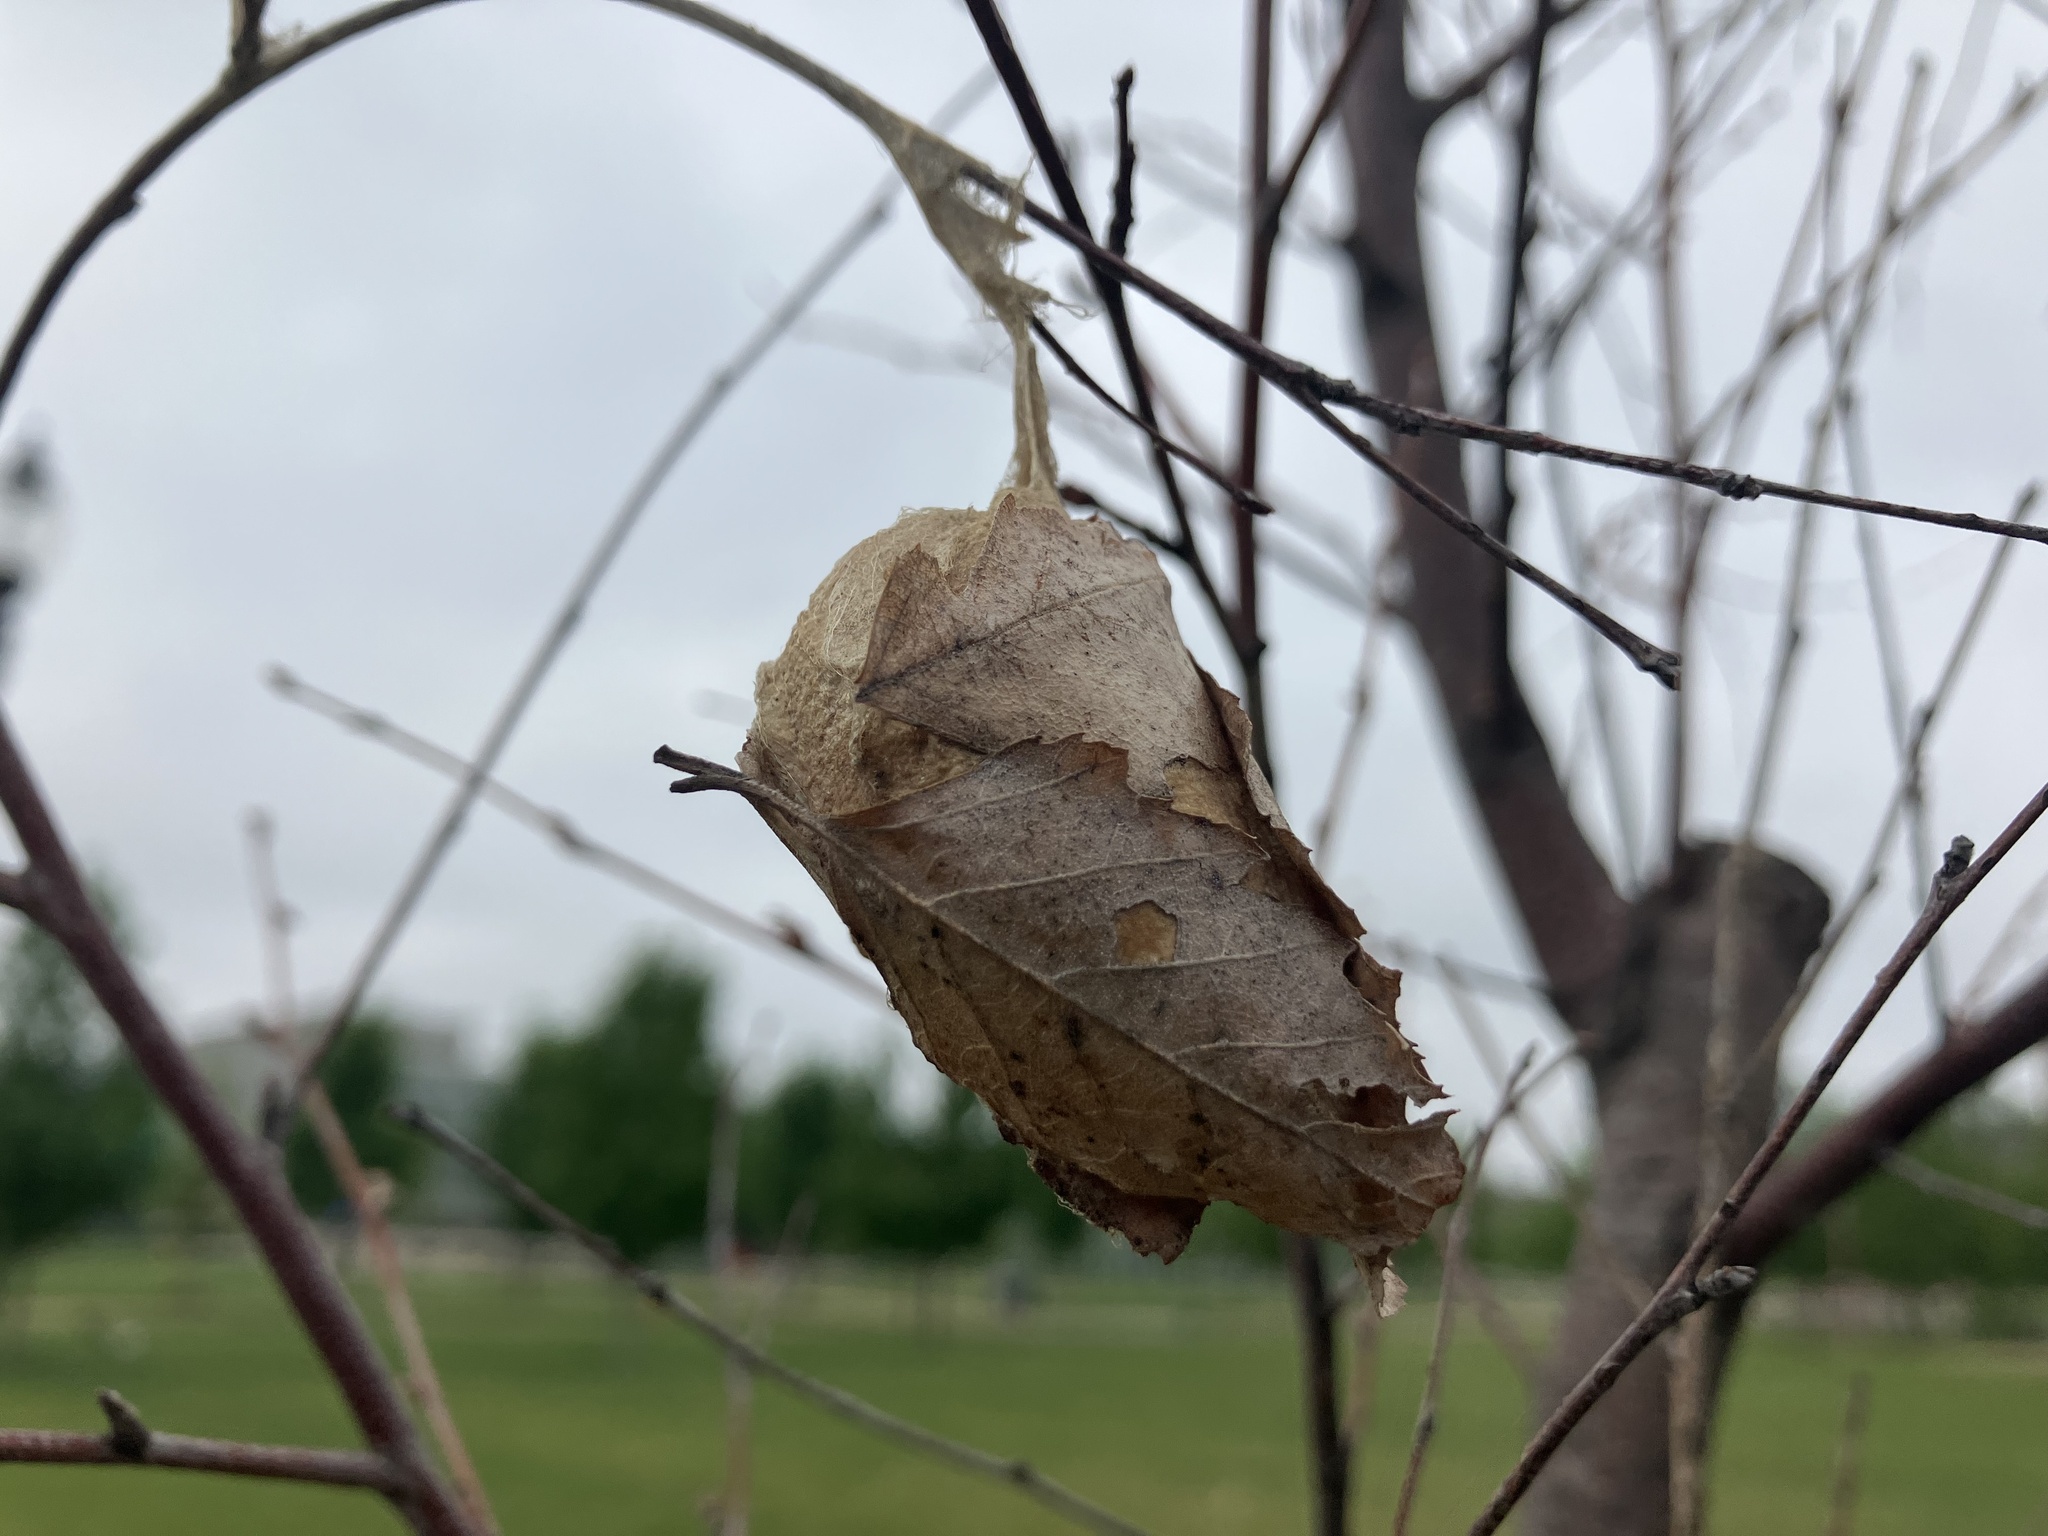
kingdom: Animalia
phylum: Arthropoda
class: Insecta
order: Lepidoptera
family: Saturniidae
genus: Antheraea
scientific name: Antheraea polyphemus
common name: Polyphemus moth
